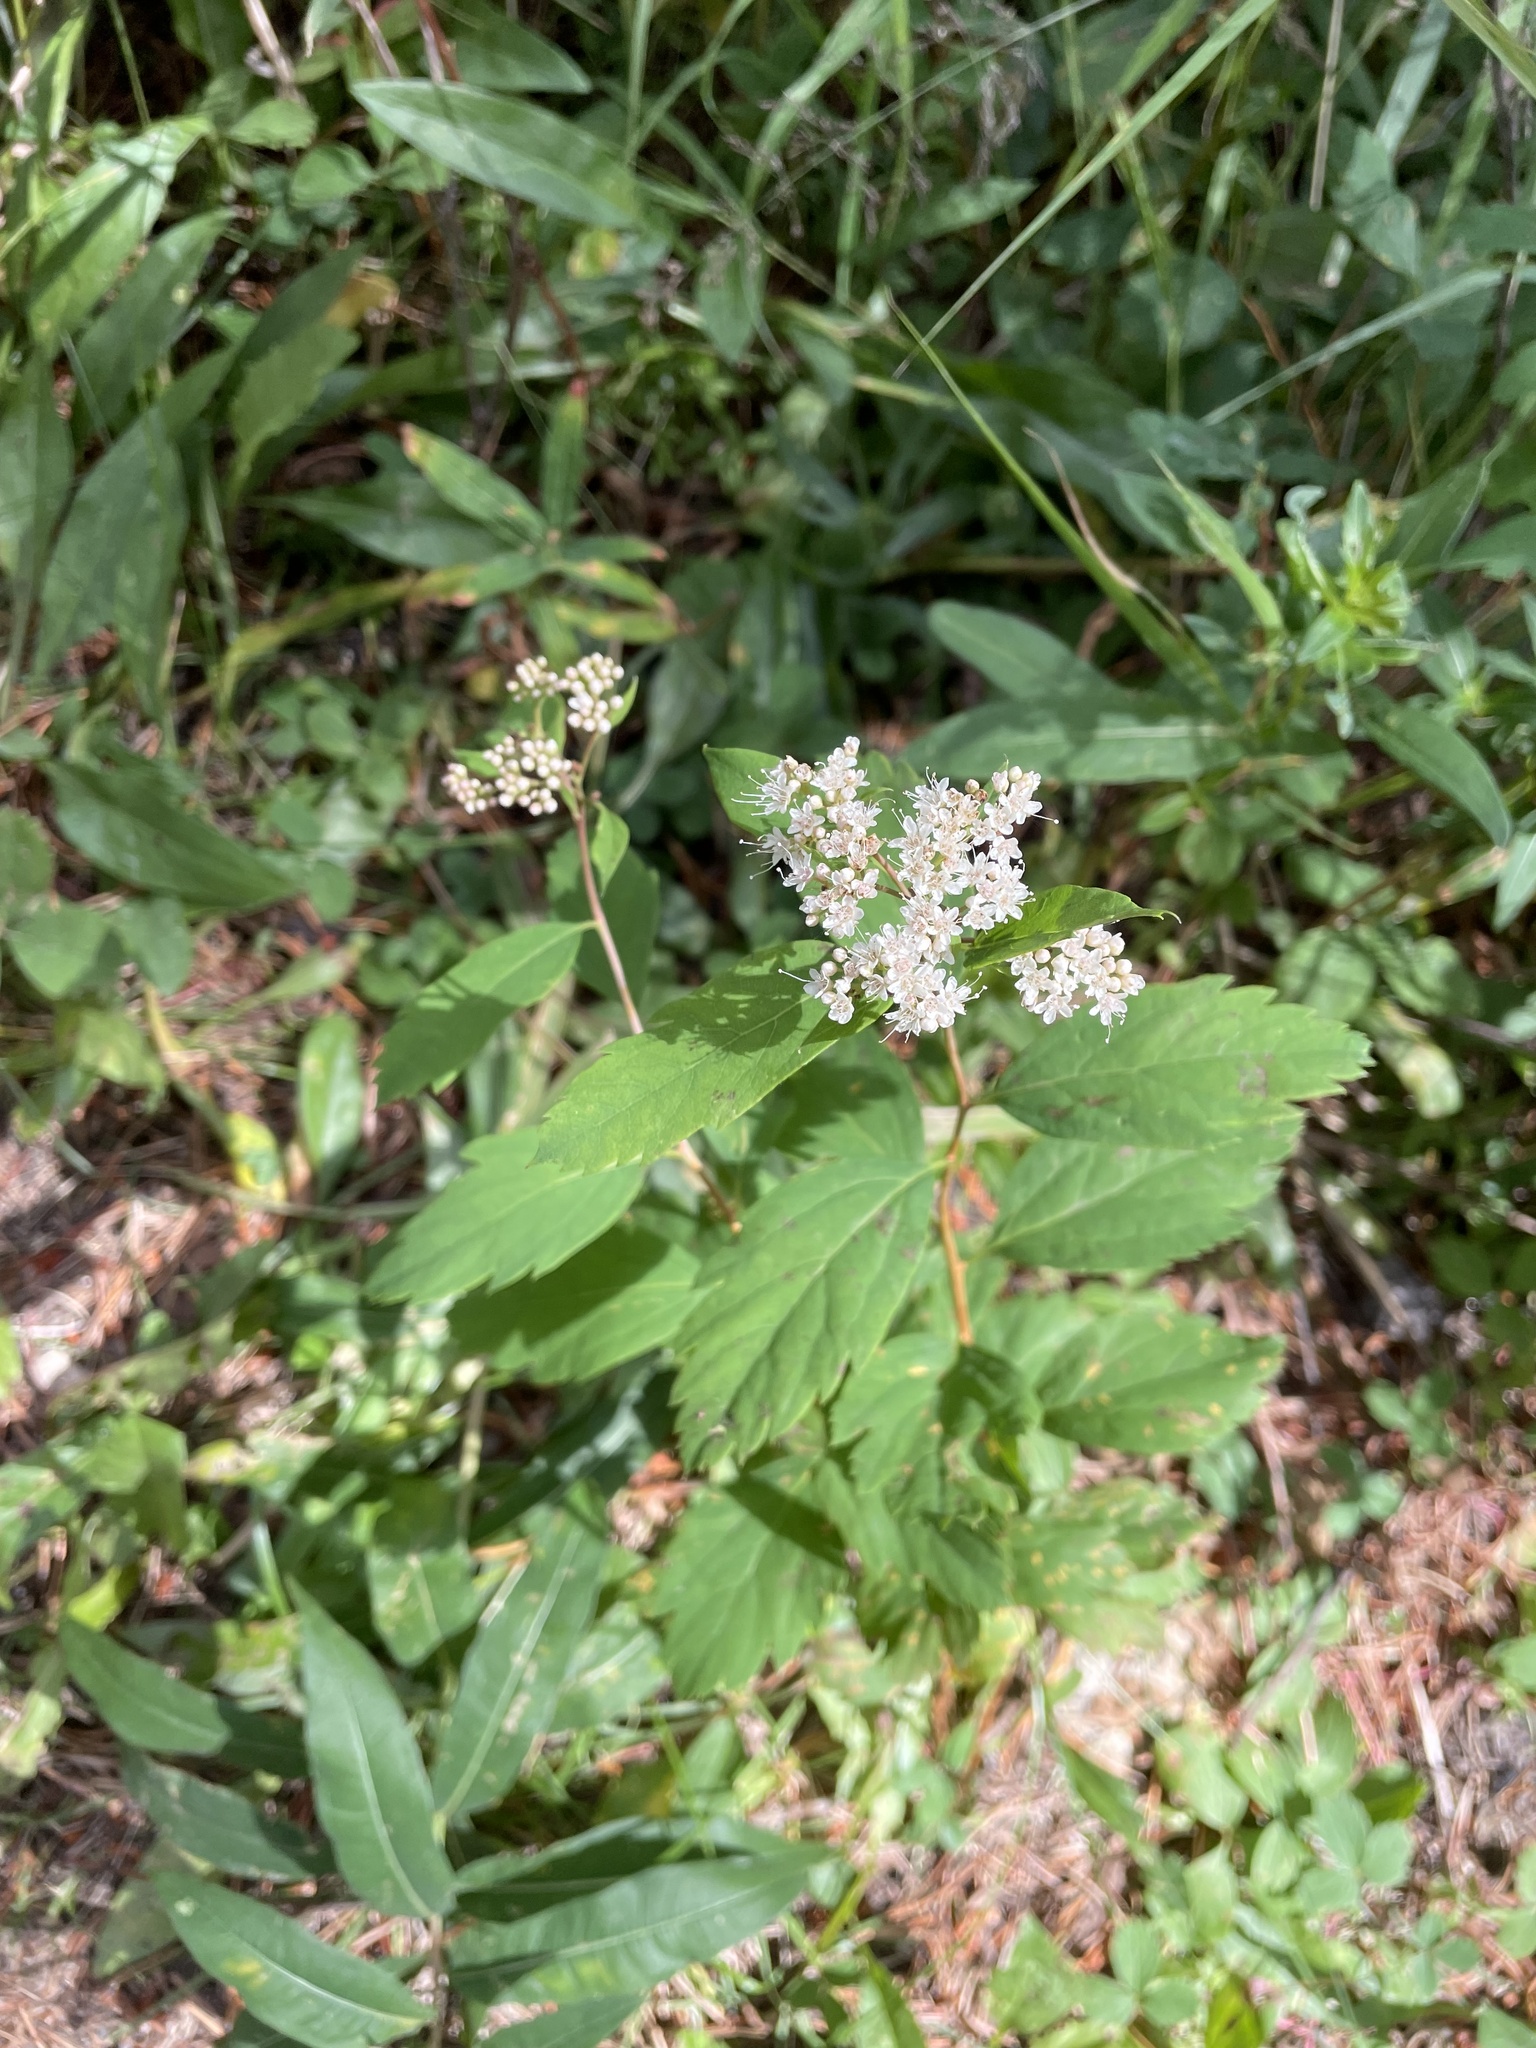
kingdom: Plantae
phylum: Tracheophyta
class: Magnoliopsida
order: Rosales
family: Rosaceae
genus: Spiraea
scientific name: Spiraea lucida
